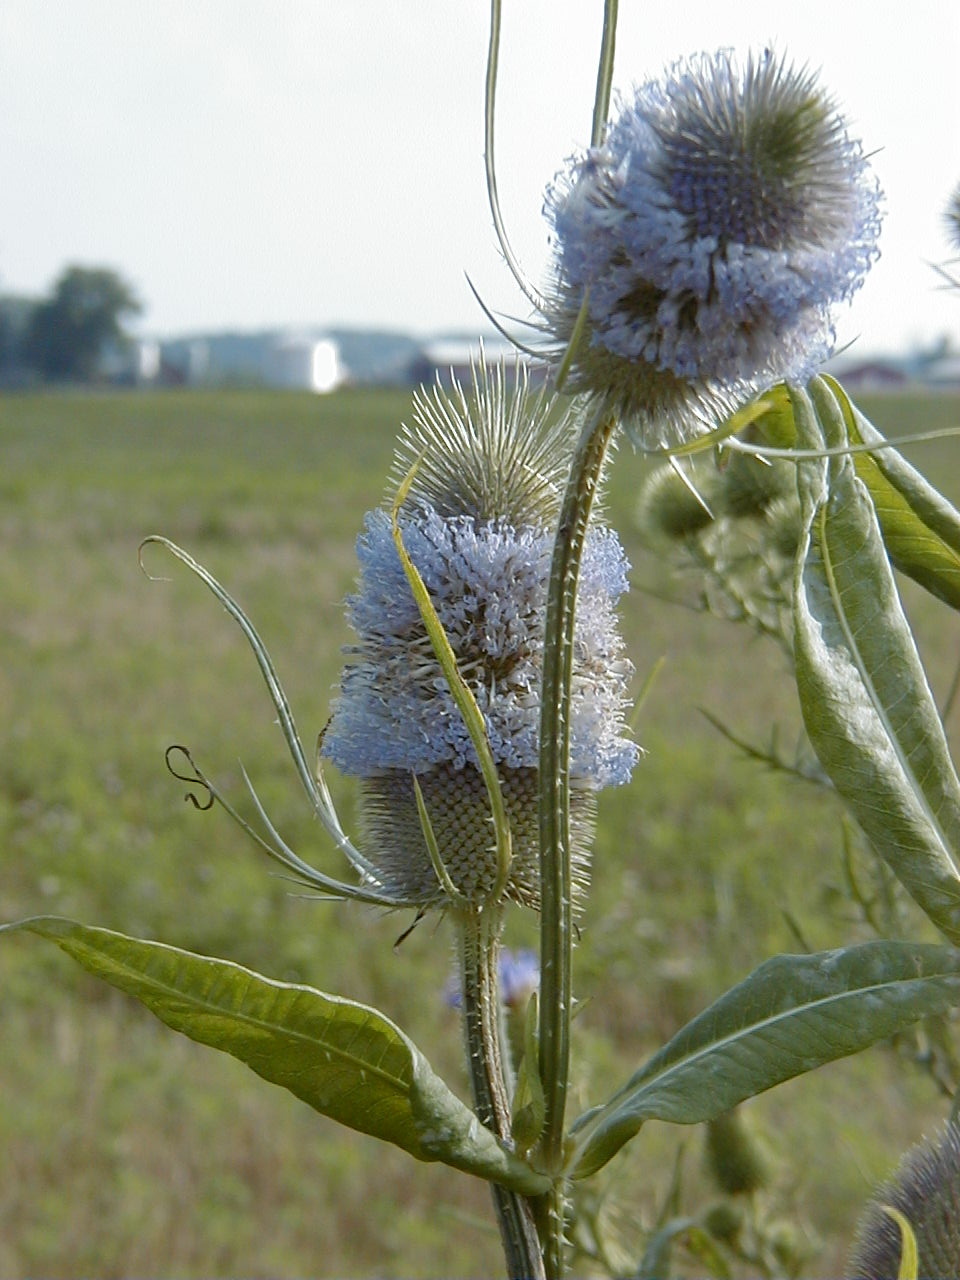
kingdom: Plantae
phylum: Tracheophyta
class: Magnoliopsida
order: Dipsacales
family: Caprifoliaceae
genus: Dipsacus
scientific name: Dipsacus fullonum
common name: Teasel
